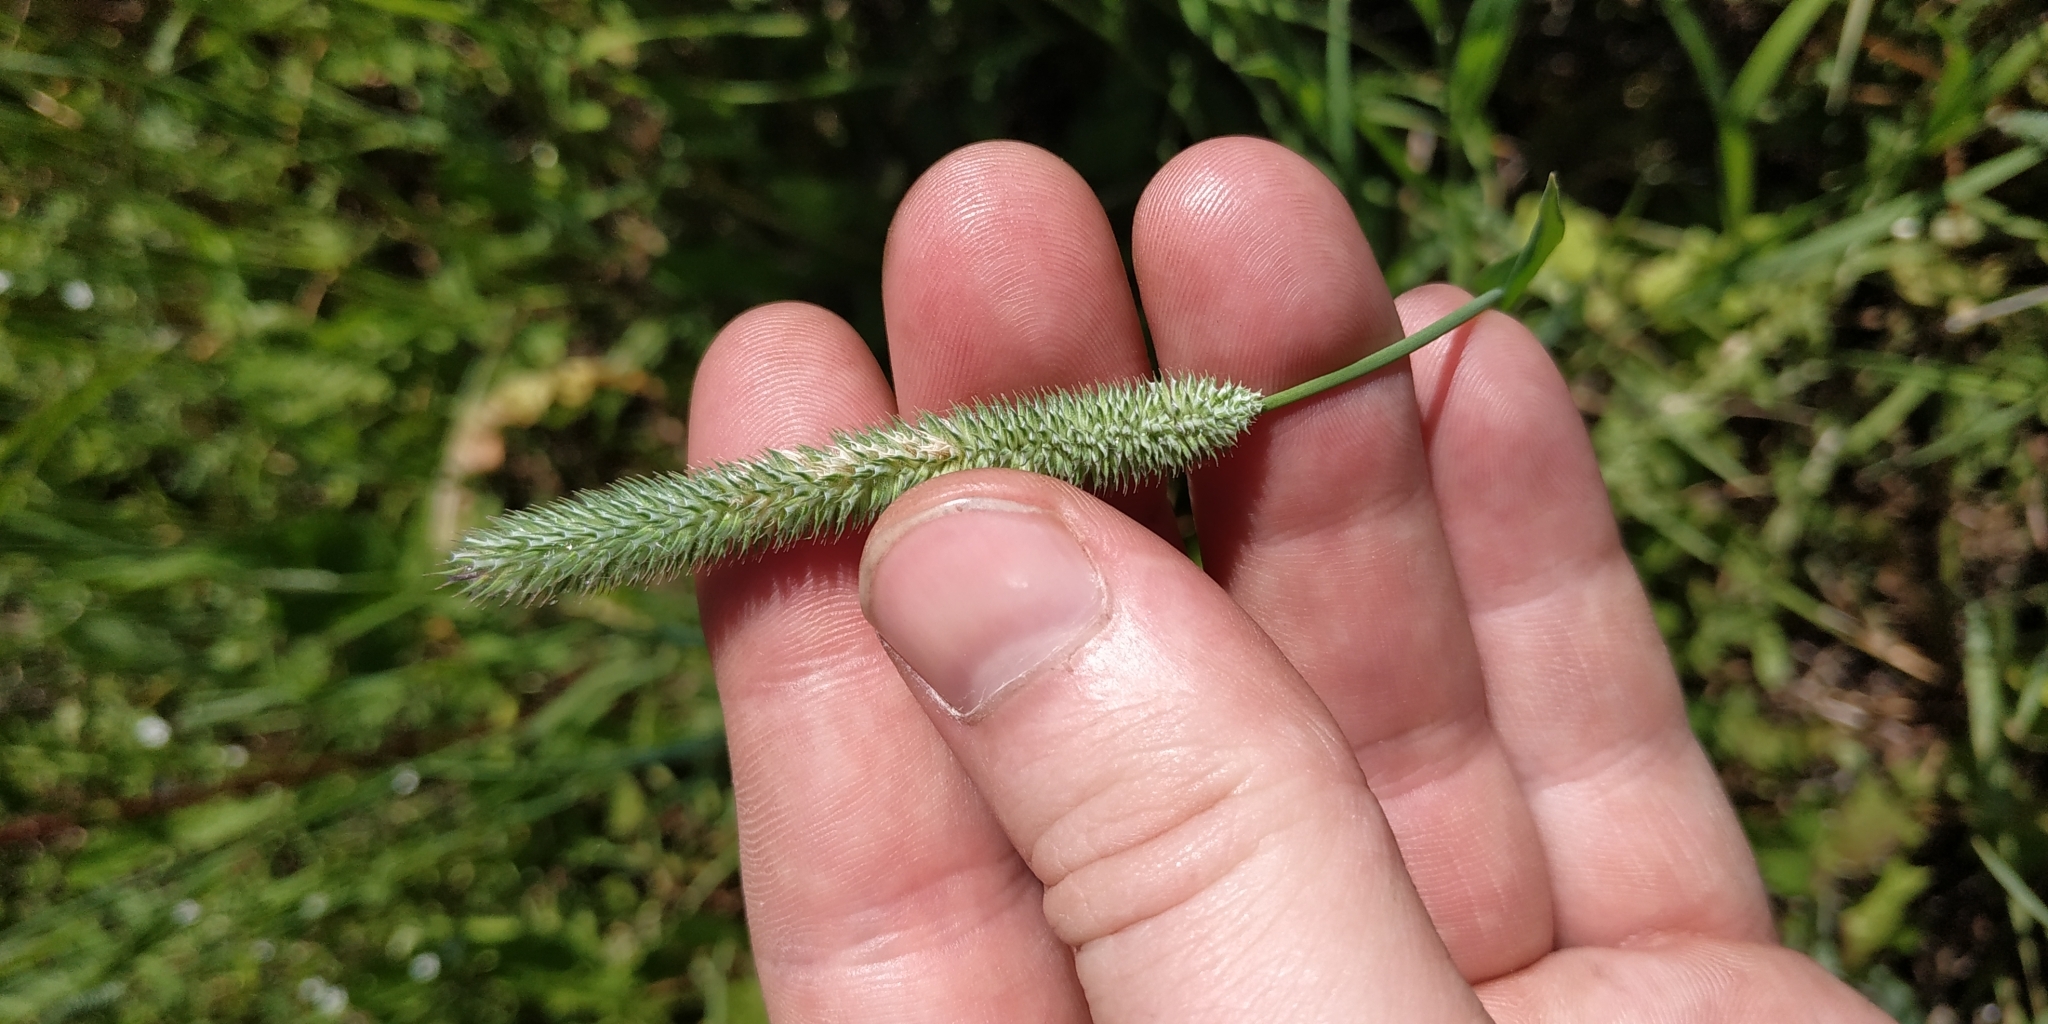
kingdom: Plantae
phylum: Tracheophyta
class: Liliopsida
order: Poales
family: Poaceae
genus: Phleum
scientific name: Phleum pratense
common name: Timothy grass
